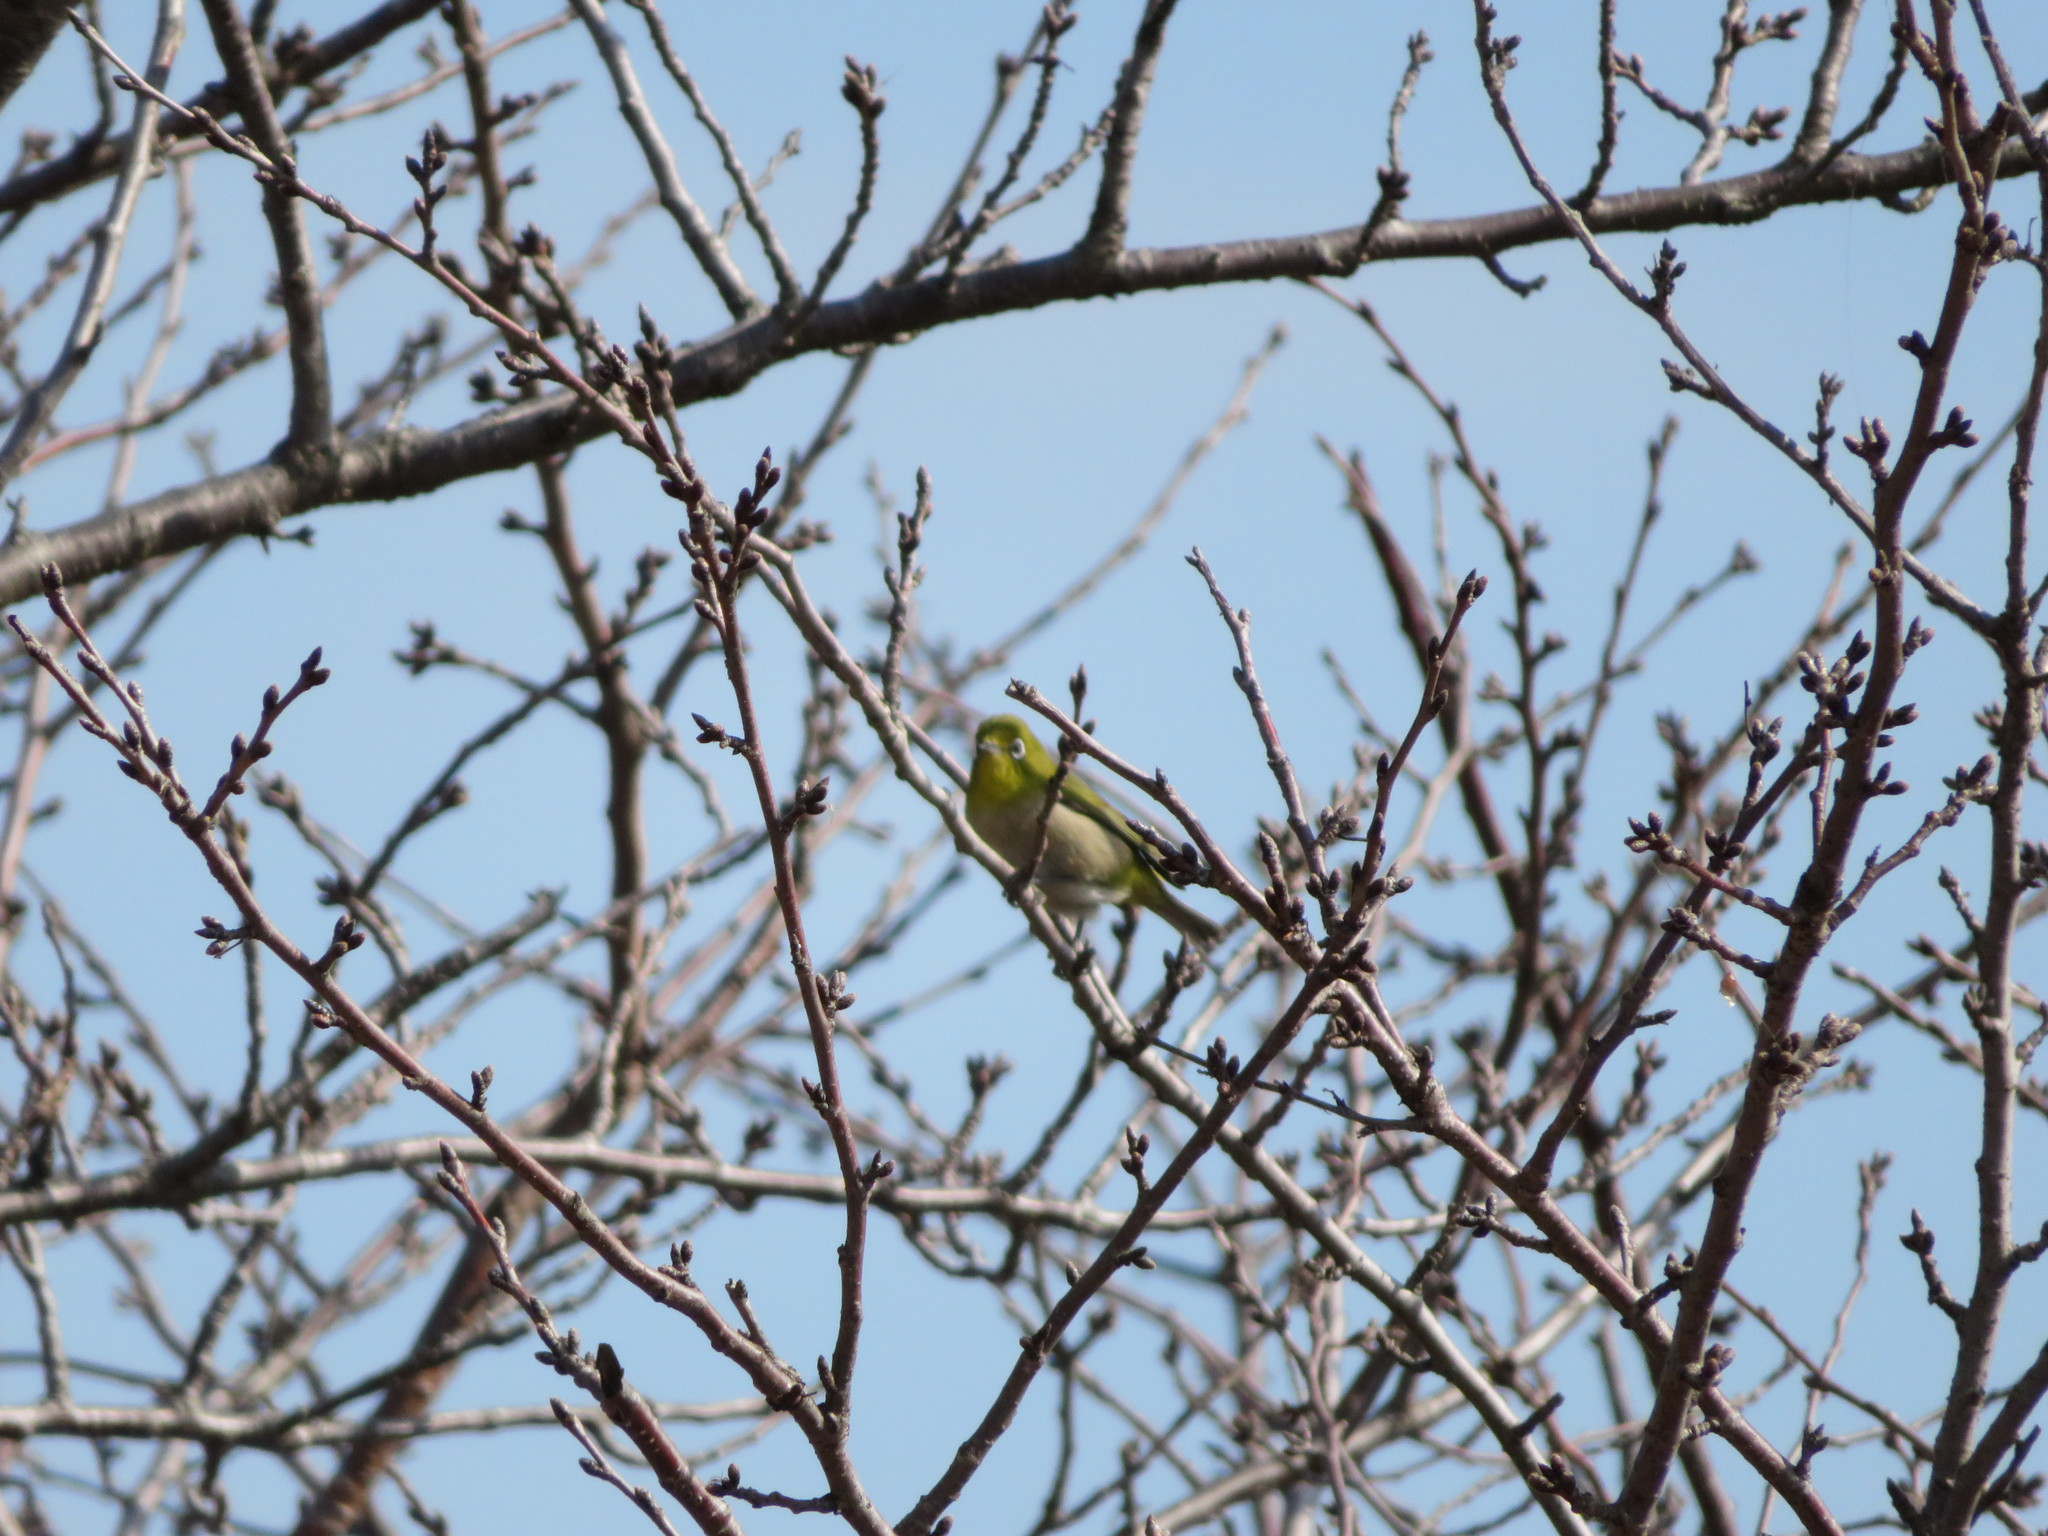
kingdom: Animalia
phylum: Chordata
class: Aves
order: Passeriformes
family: Zosteropidae
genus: Zosterops
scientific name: Zosterops japonicus
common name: Japanese white-eye
